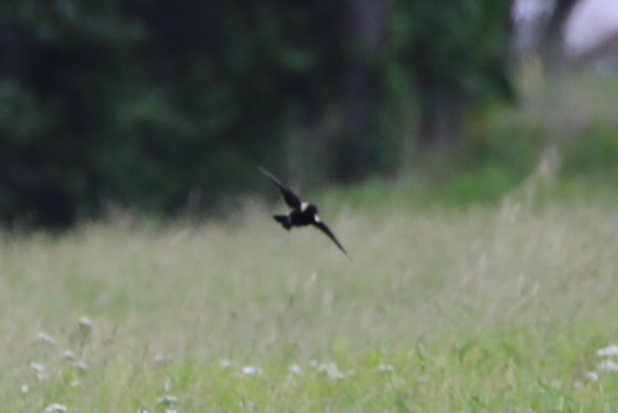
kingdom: Animalia
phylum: Chordata
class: Aves
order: Passeriformes
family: Icteridae
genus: Dolichonyx
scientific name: Dolichonyx oryzivorus
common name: Bobolink
